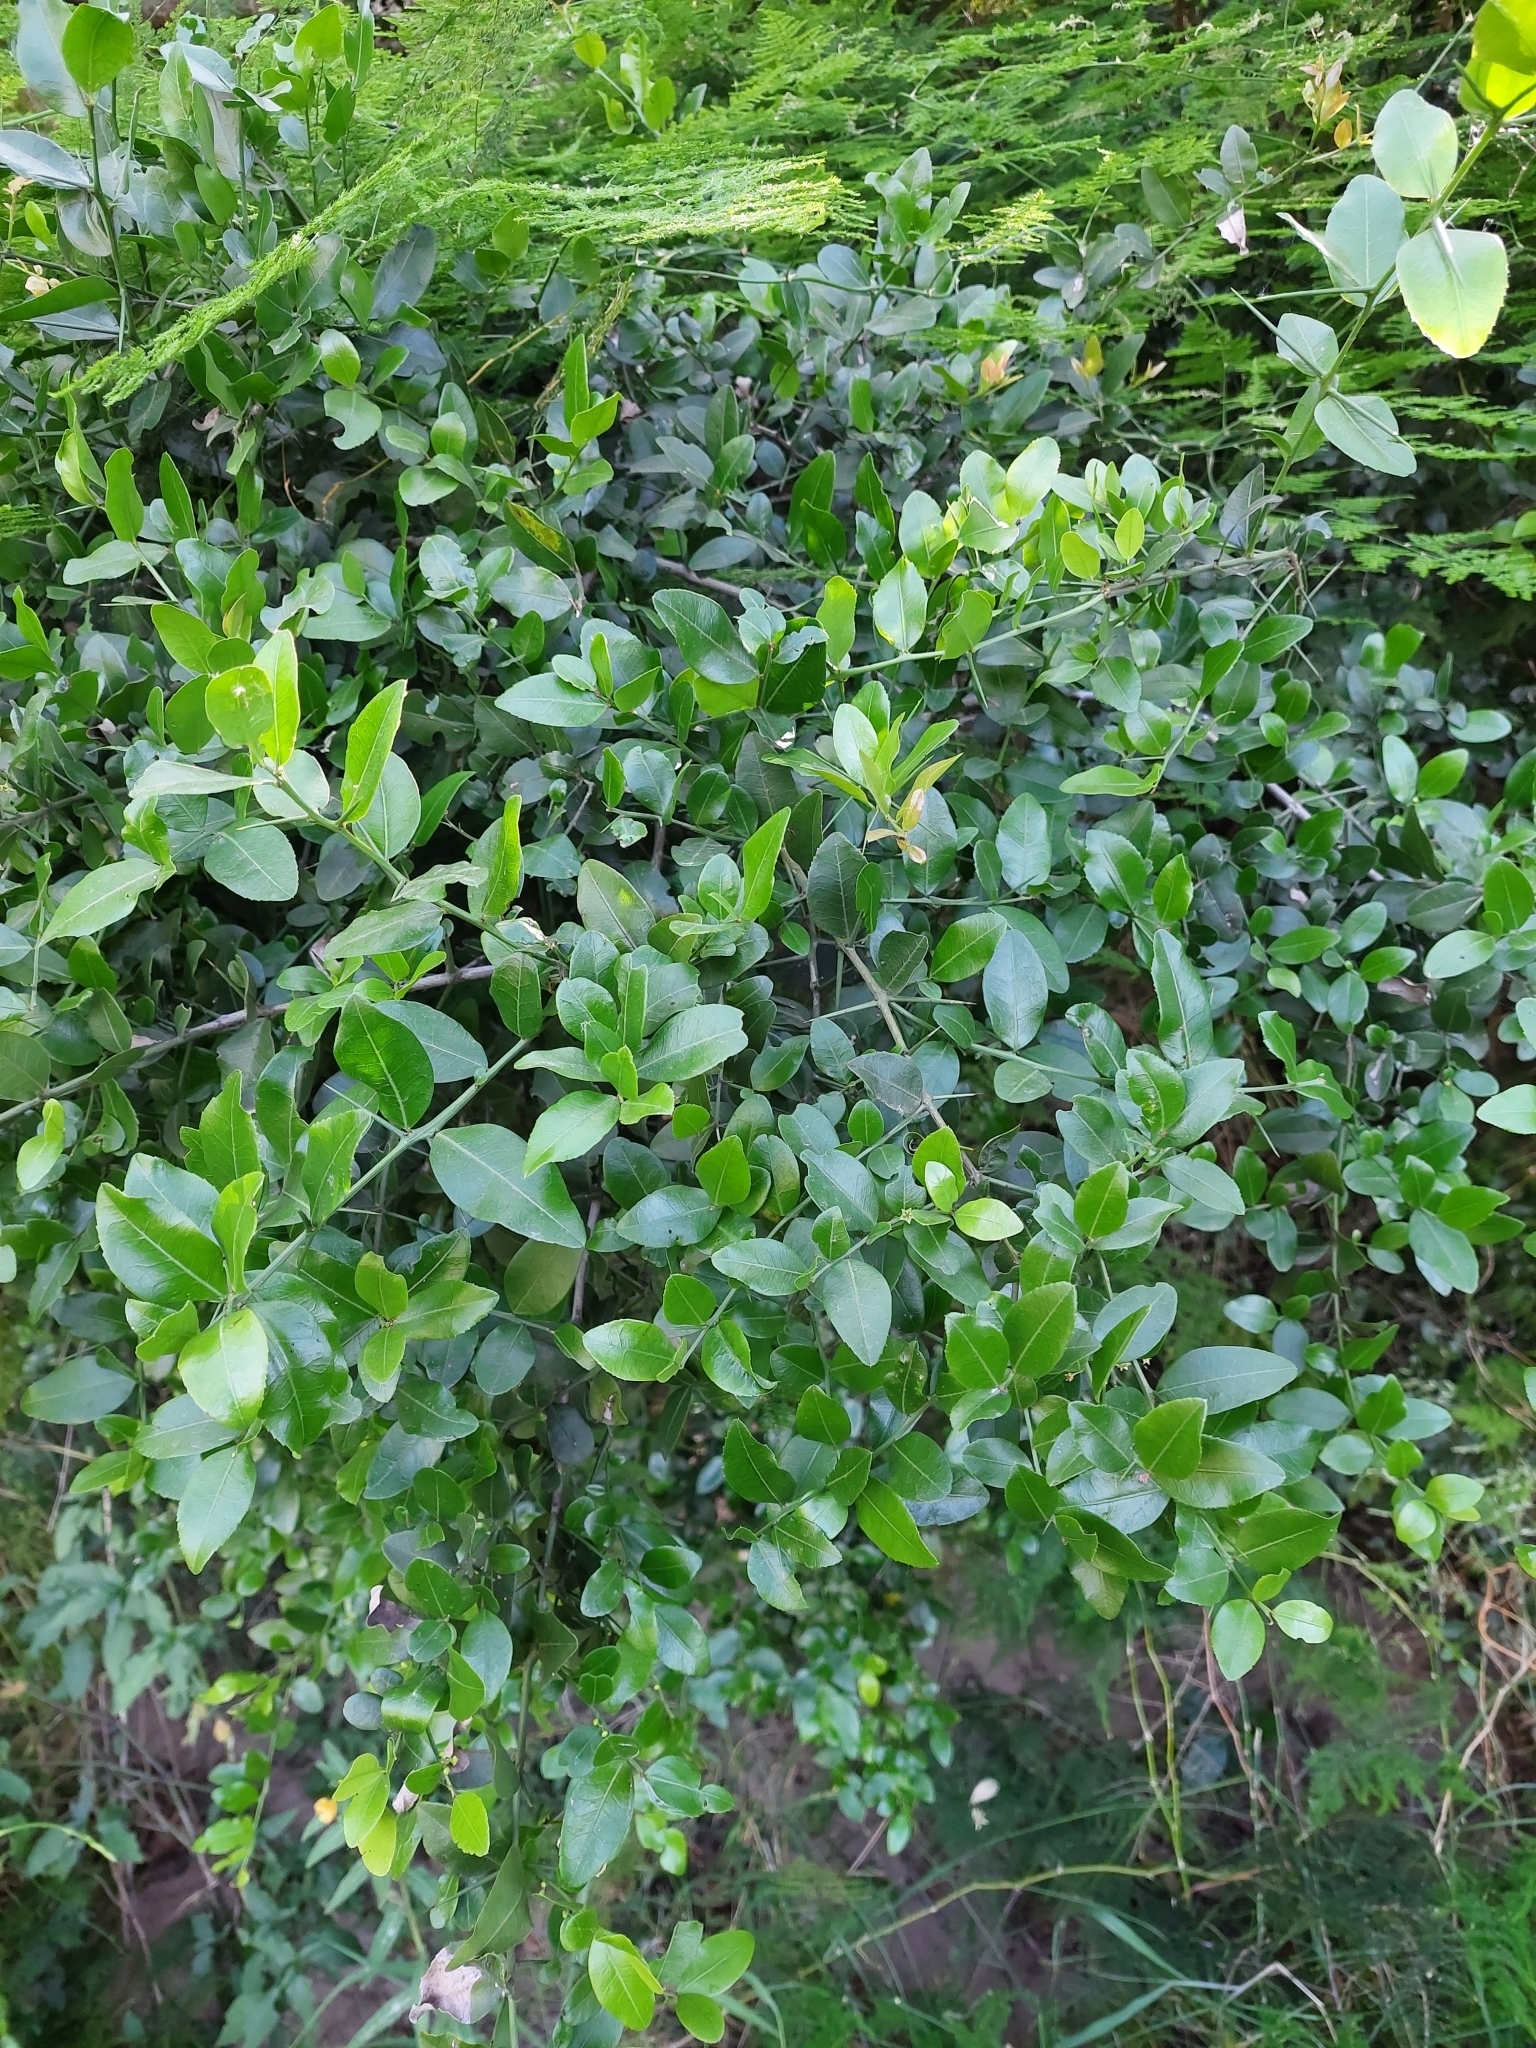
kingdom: Plantae
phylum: Tracheophyta
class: Magnoliopsida
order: Rosales
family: Rhamnaceae
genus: Scutia
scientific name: Scutia buxifolia
